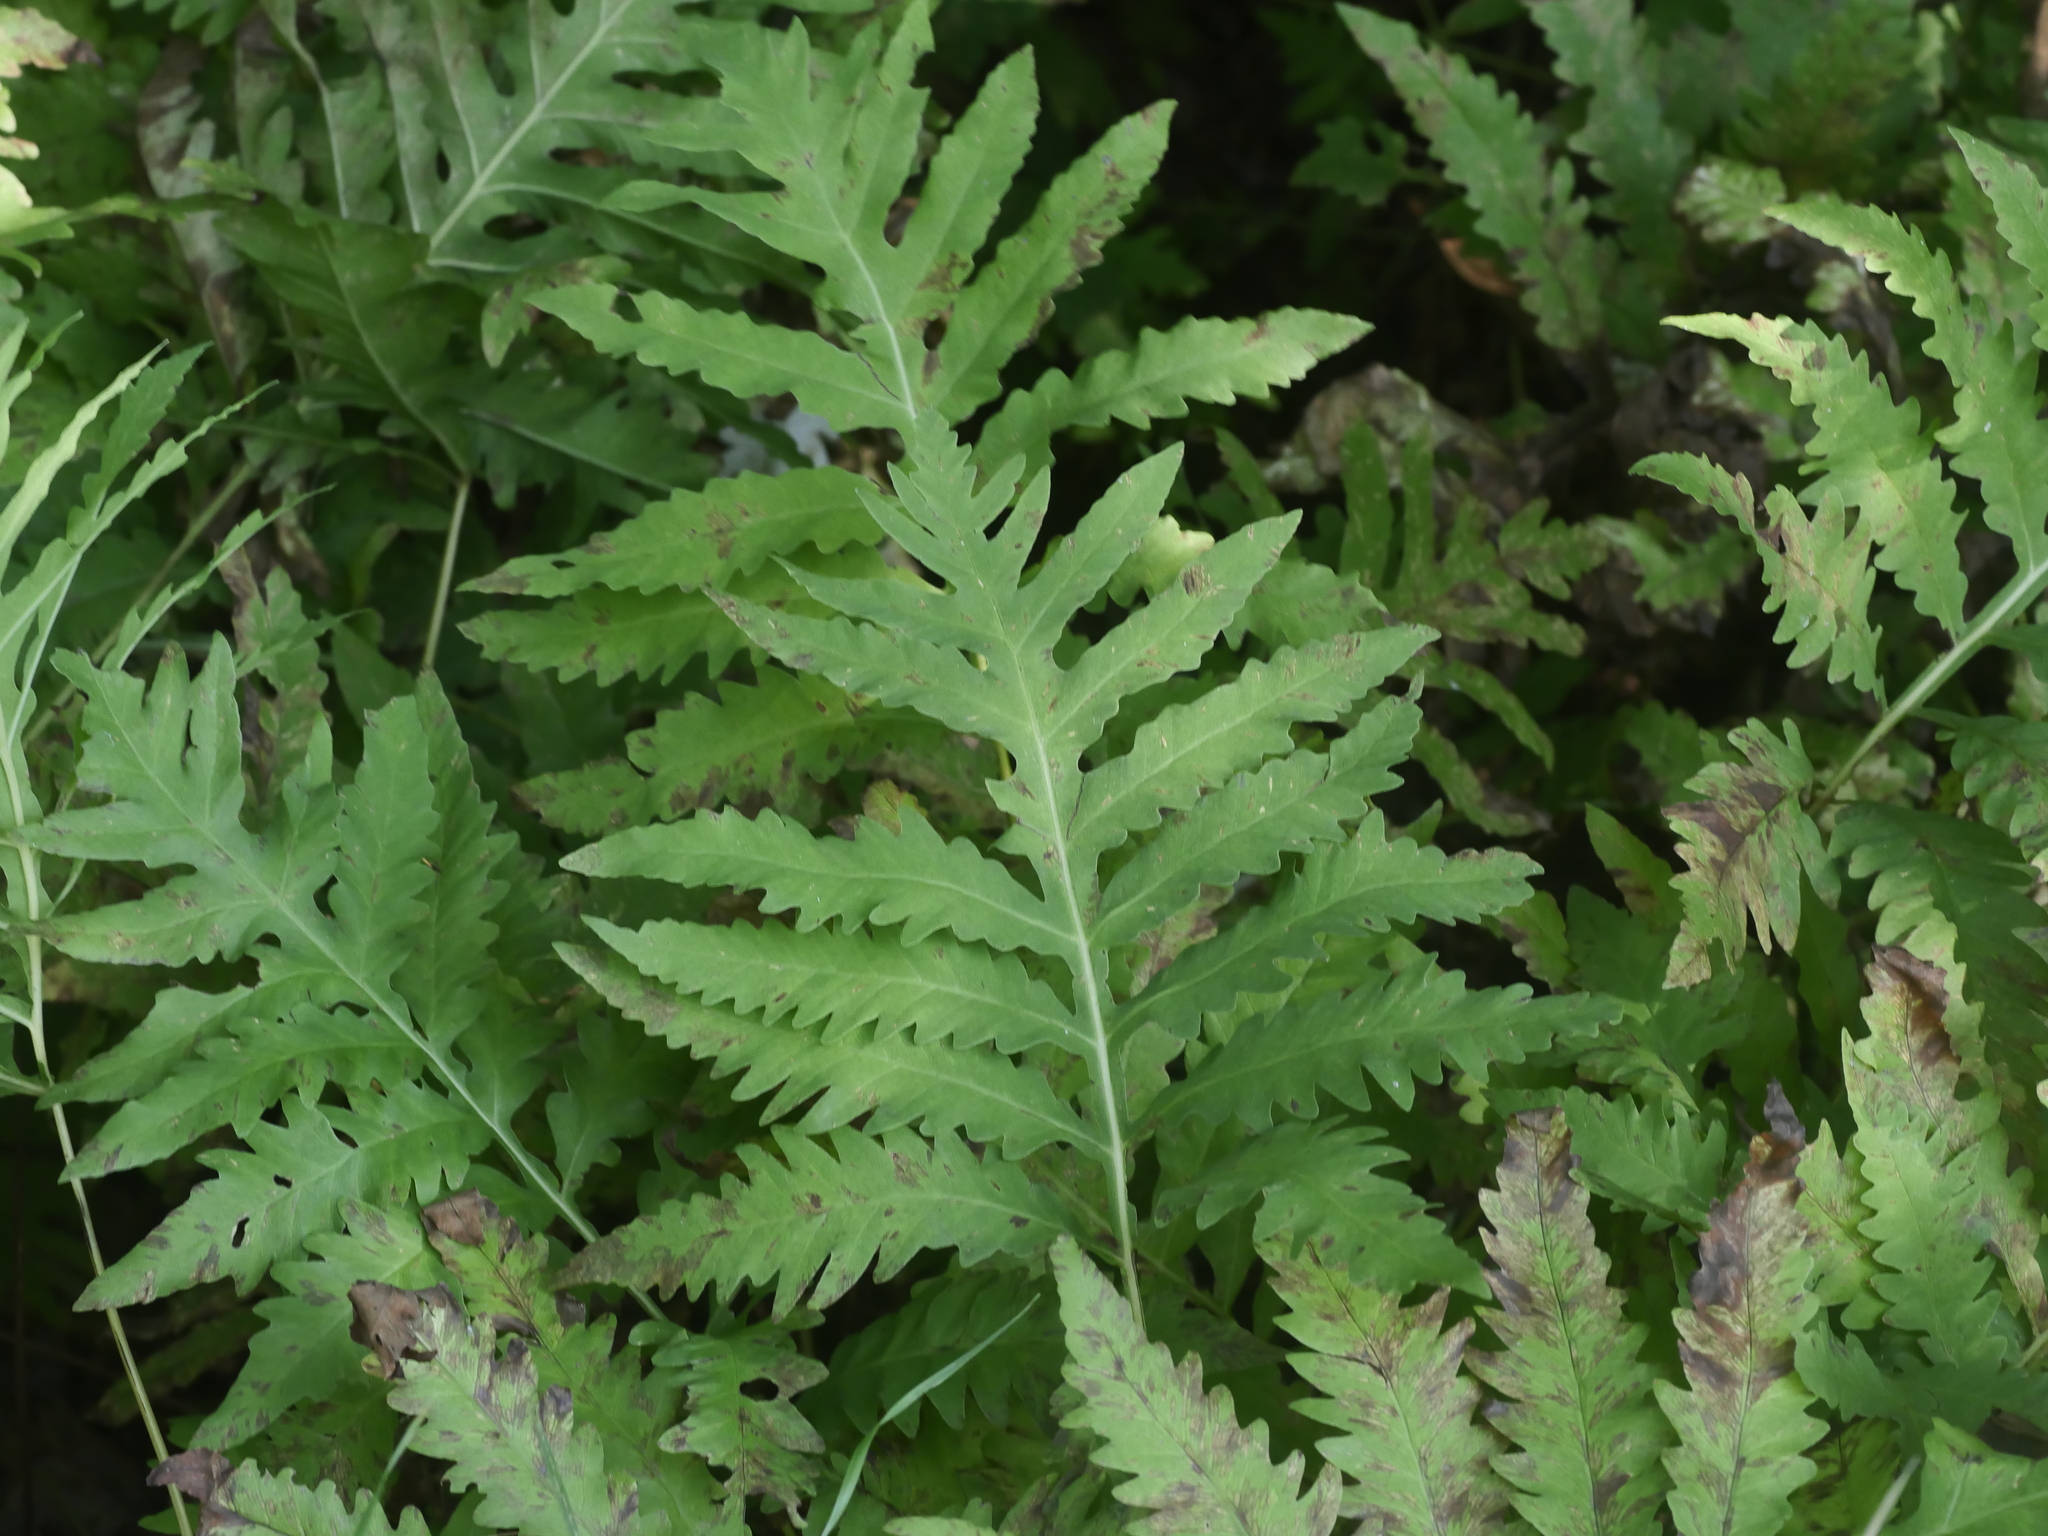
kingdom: Plantae
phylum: Tracheophyta
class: Polypodiopsida
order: Polypodiales
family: Onocleaceae
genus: Onoclea
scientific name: Onoclea sensibilis
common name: Sensitive fern
